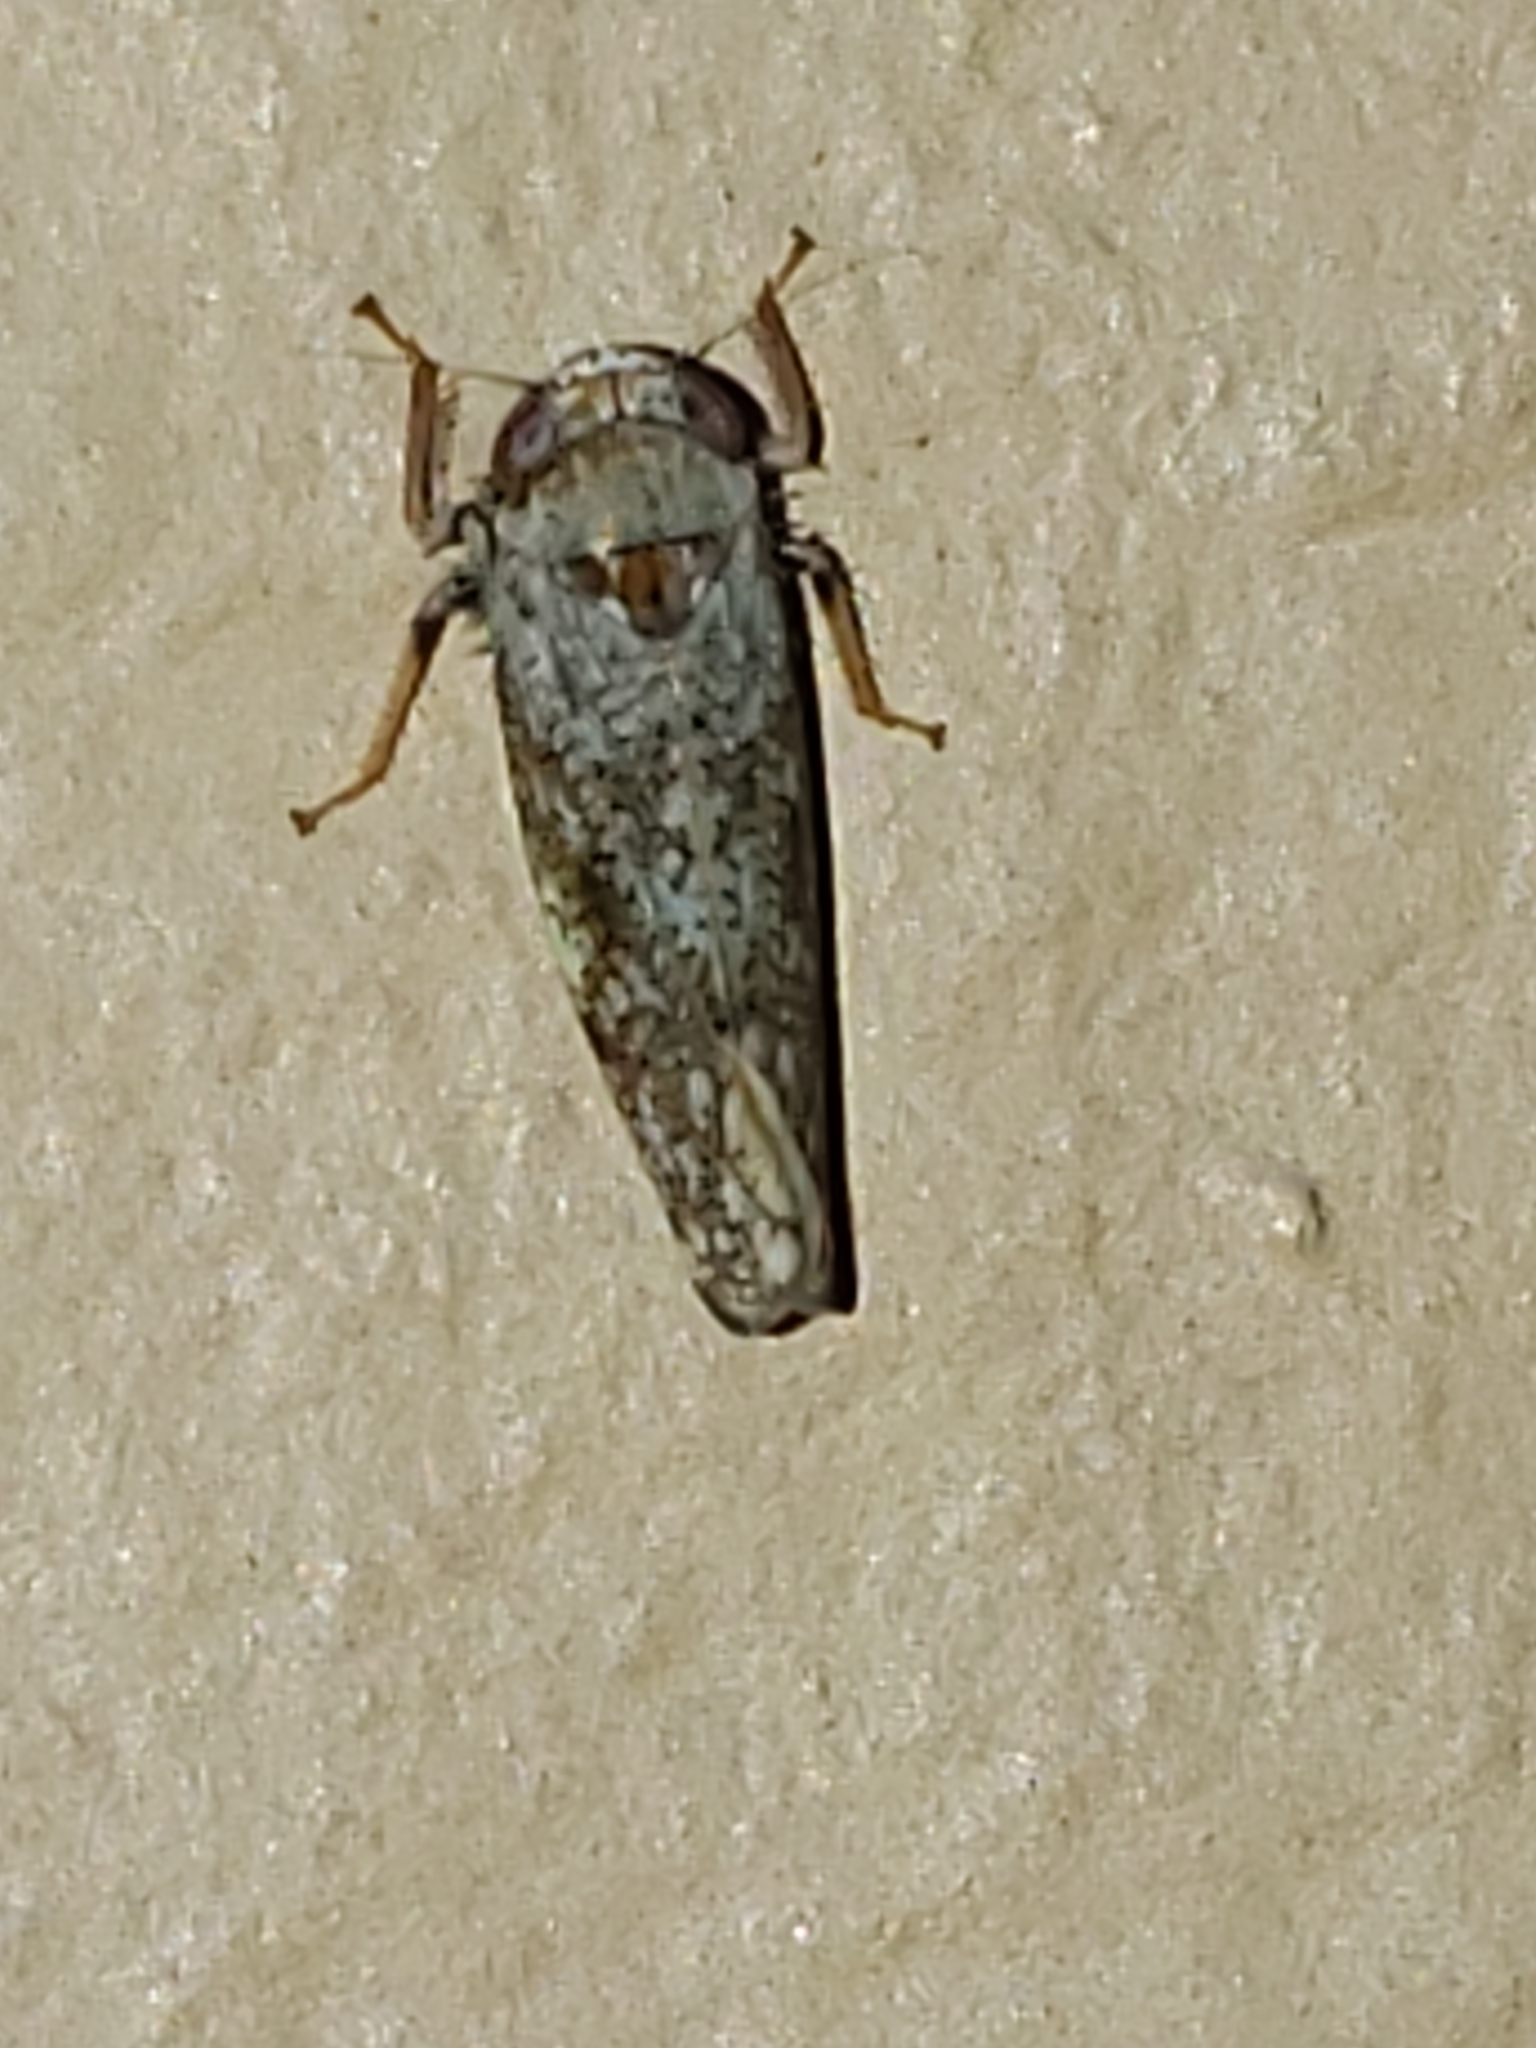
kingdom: Animalia
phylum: Arthropoda
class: Insecta
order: Hemiptera
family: Cicadellidae
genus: Orientus
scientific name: Orientus ishidae
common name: Japanese leafhopper
